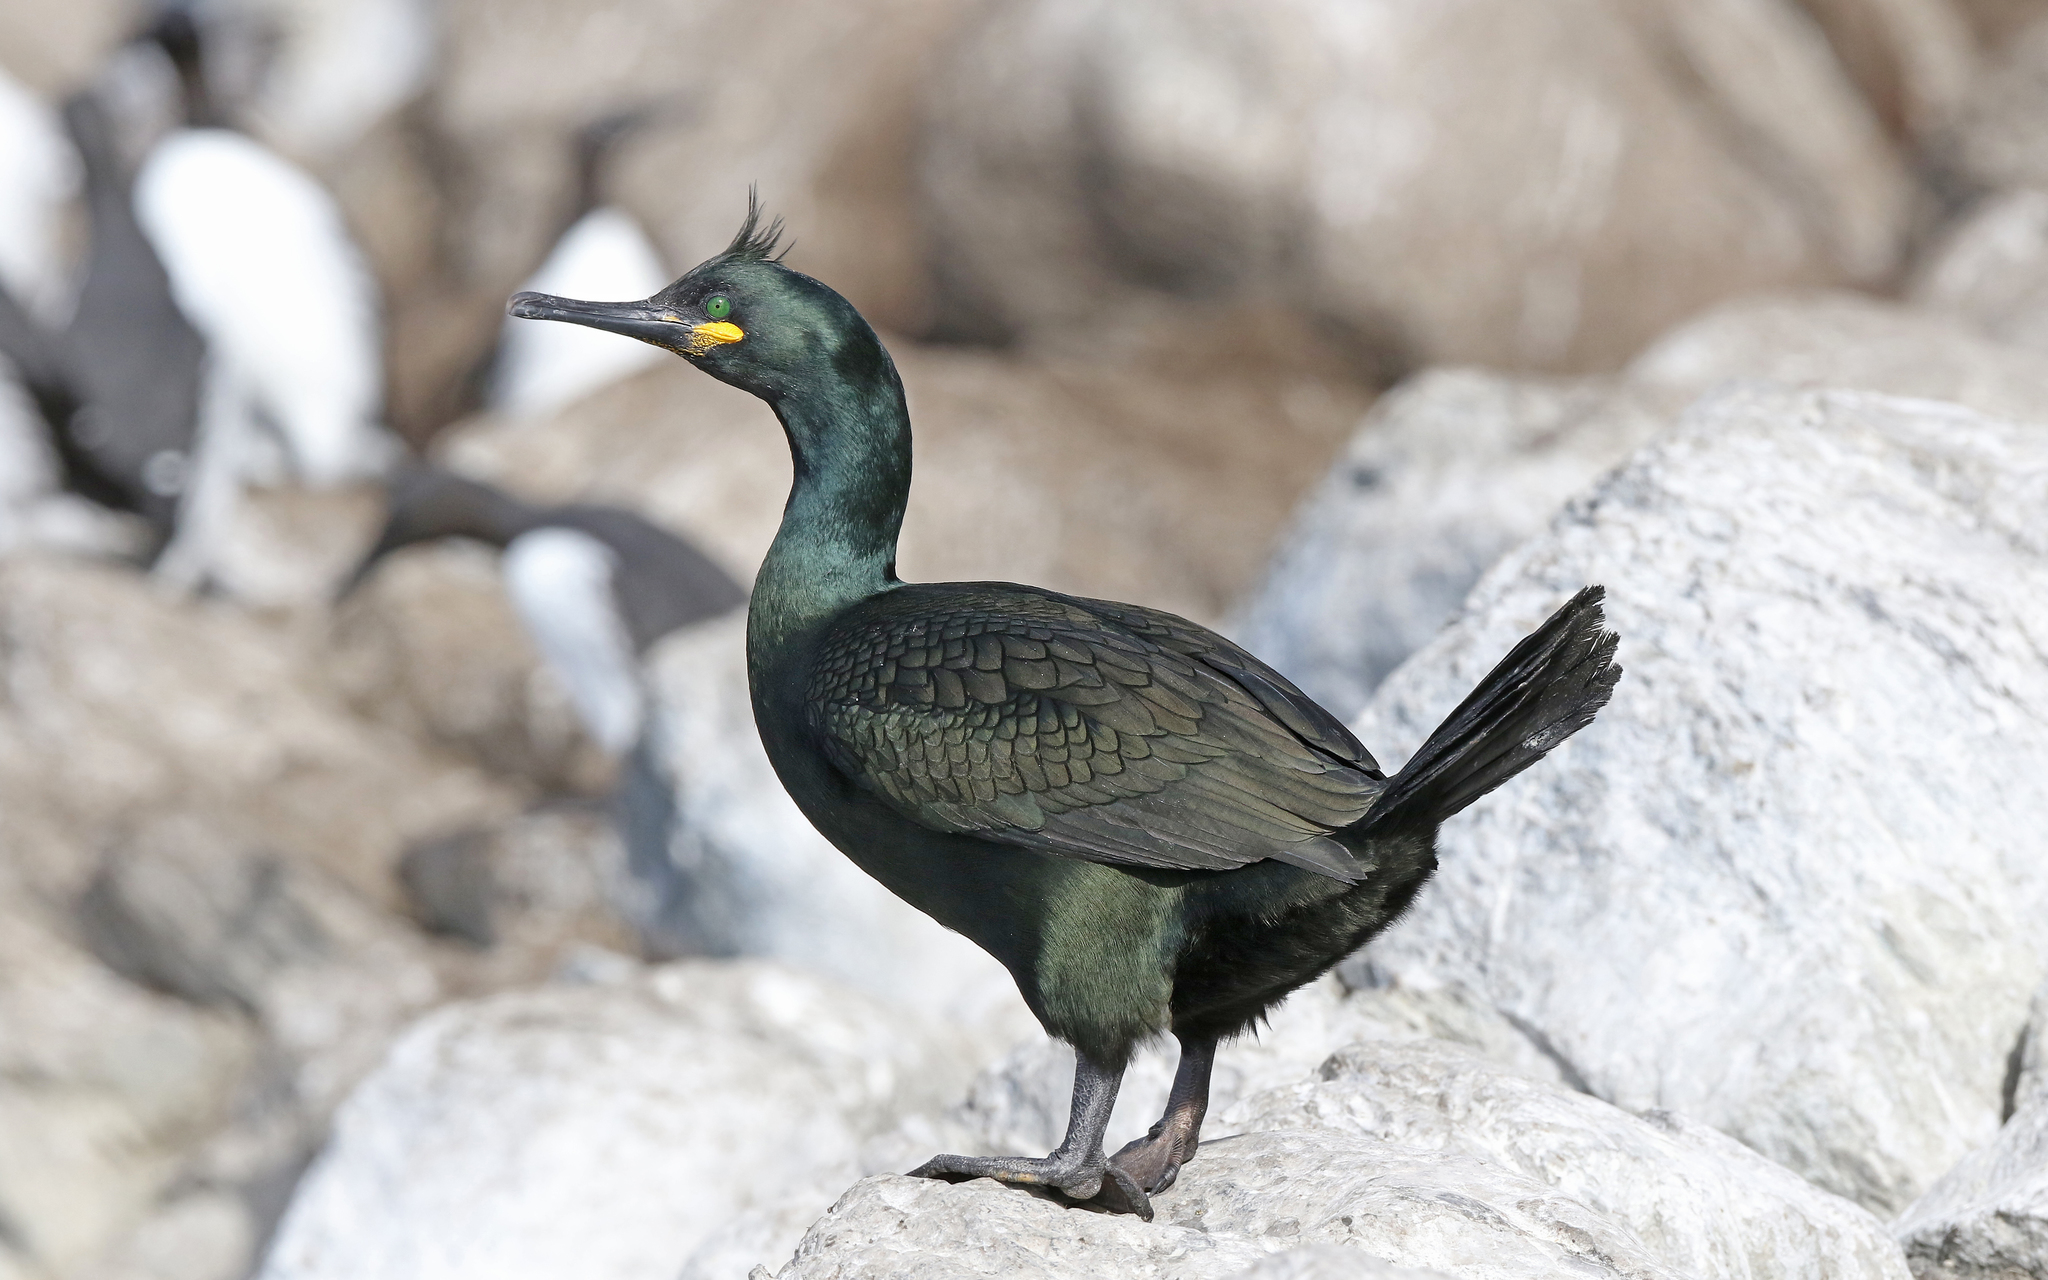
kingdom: Animalia
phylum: Chordata
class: Aves
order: Suliformes
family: Phalacrocoracidae
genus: Phalacrocorax
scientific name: Phalacrocorax aristotelis
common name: European shag
